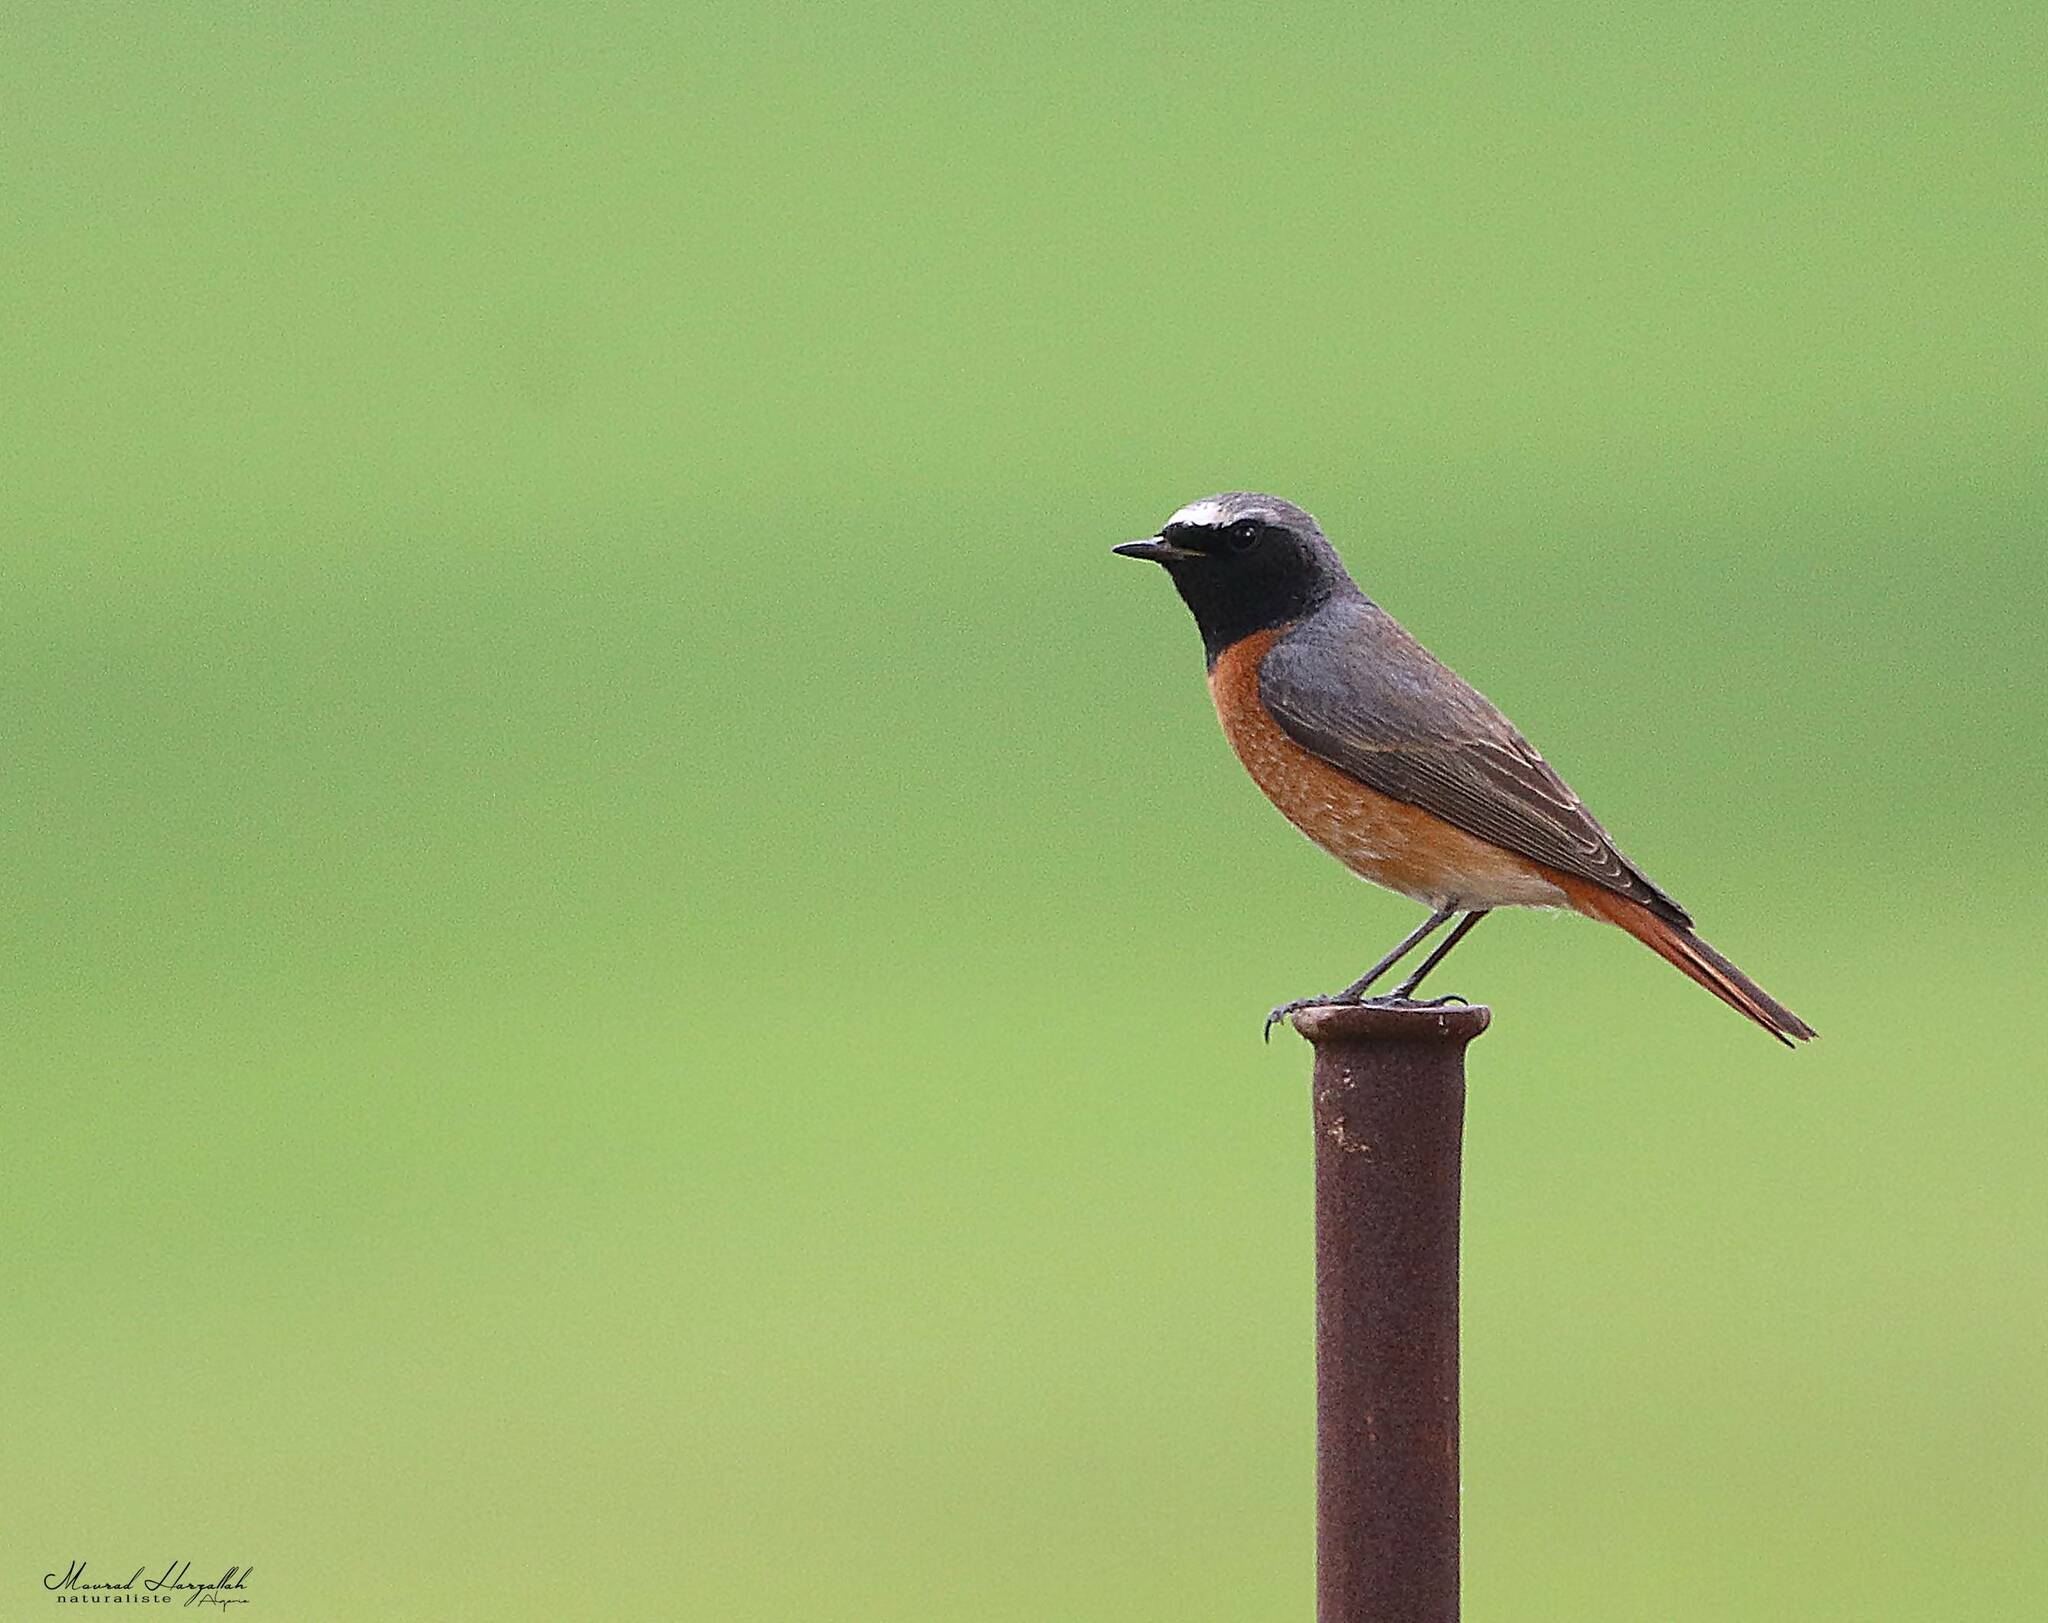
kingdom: Animalia
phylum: Chordata
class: Aves
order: Passeriformes
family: Muscicapidae
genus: Phoenicurus
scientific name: Phoenicurus phoenicurus
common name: Common redstart
